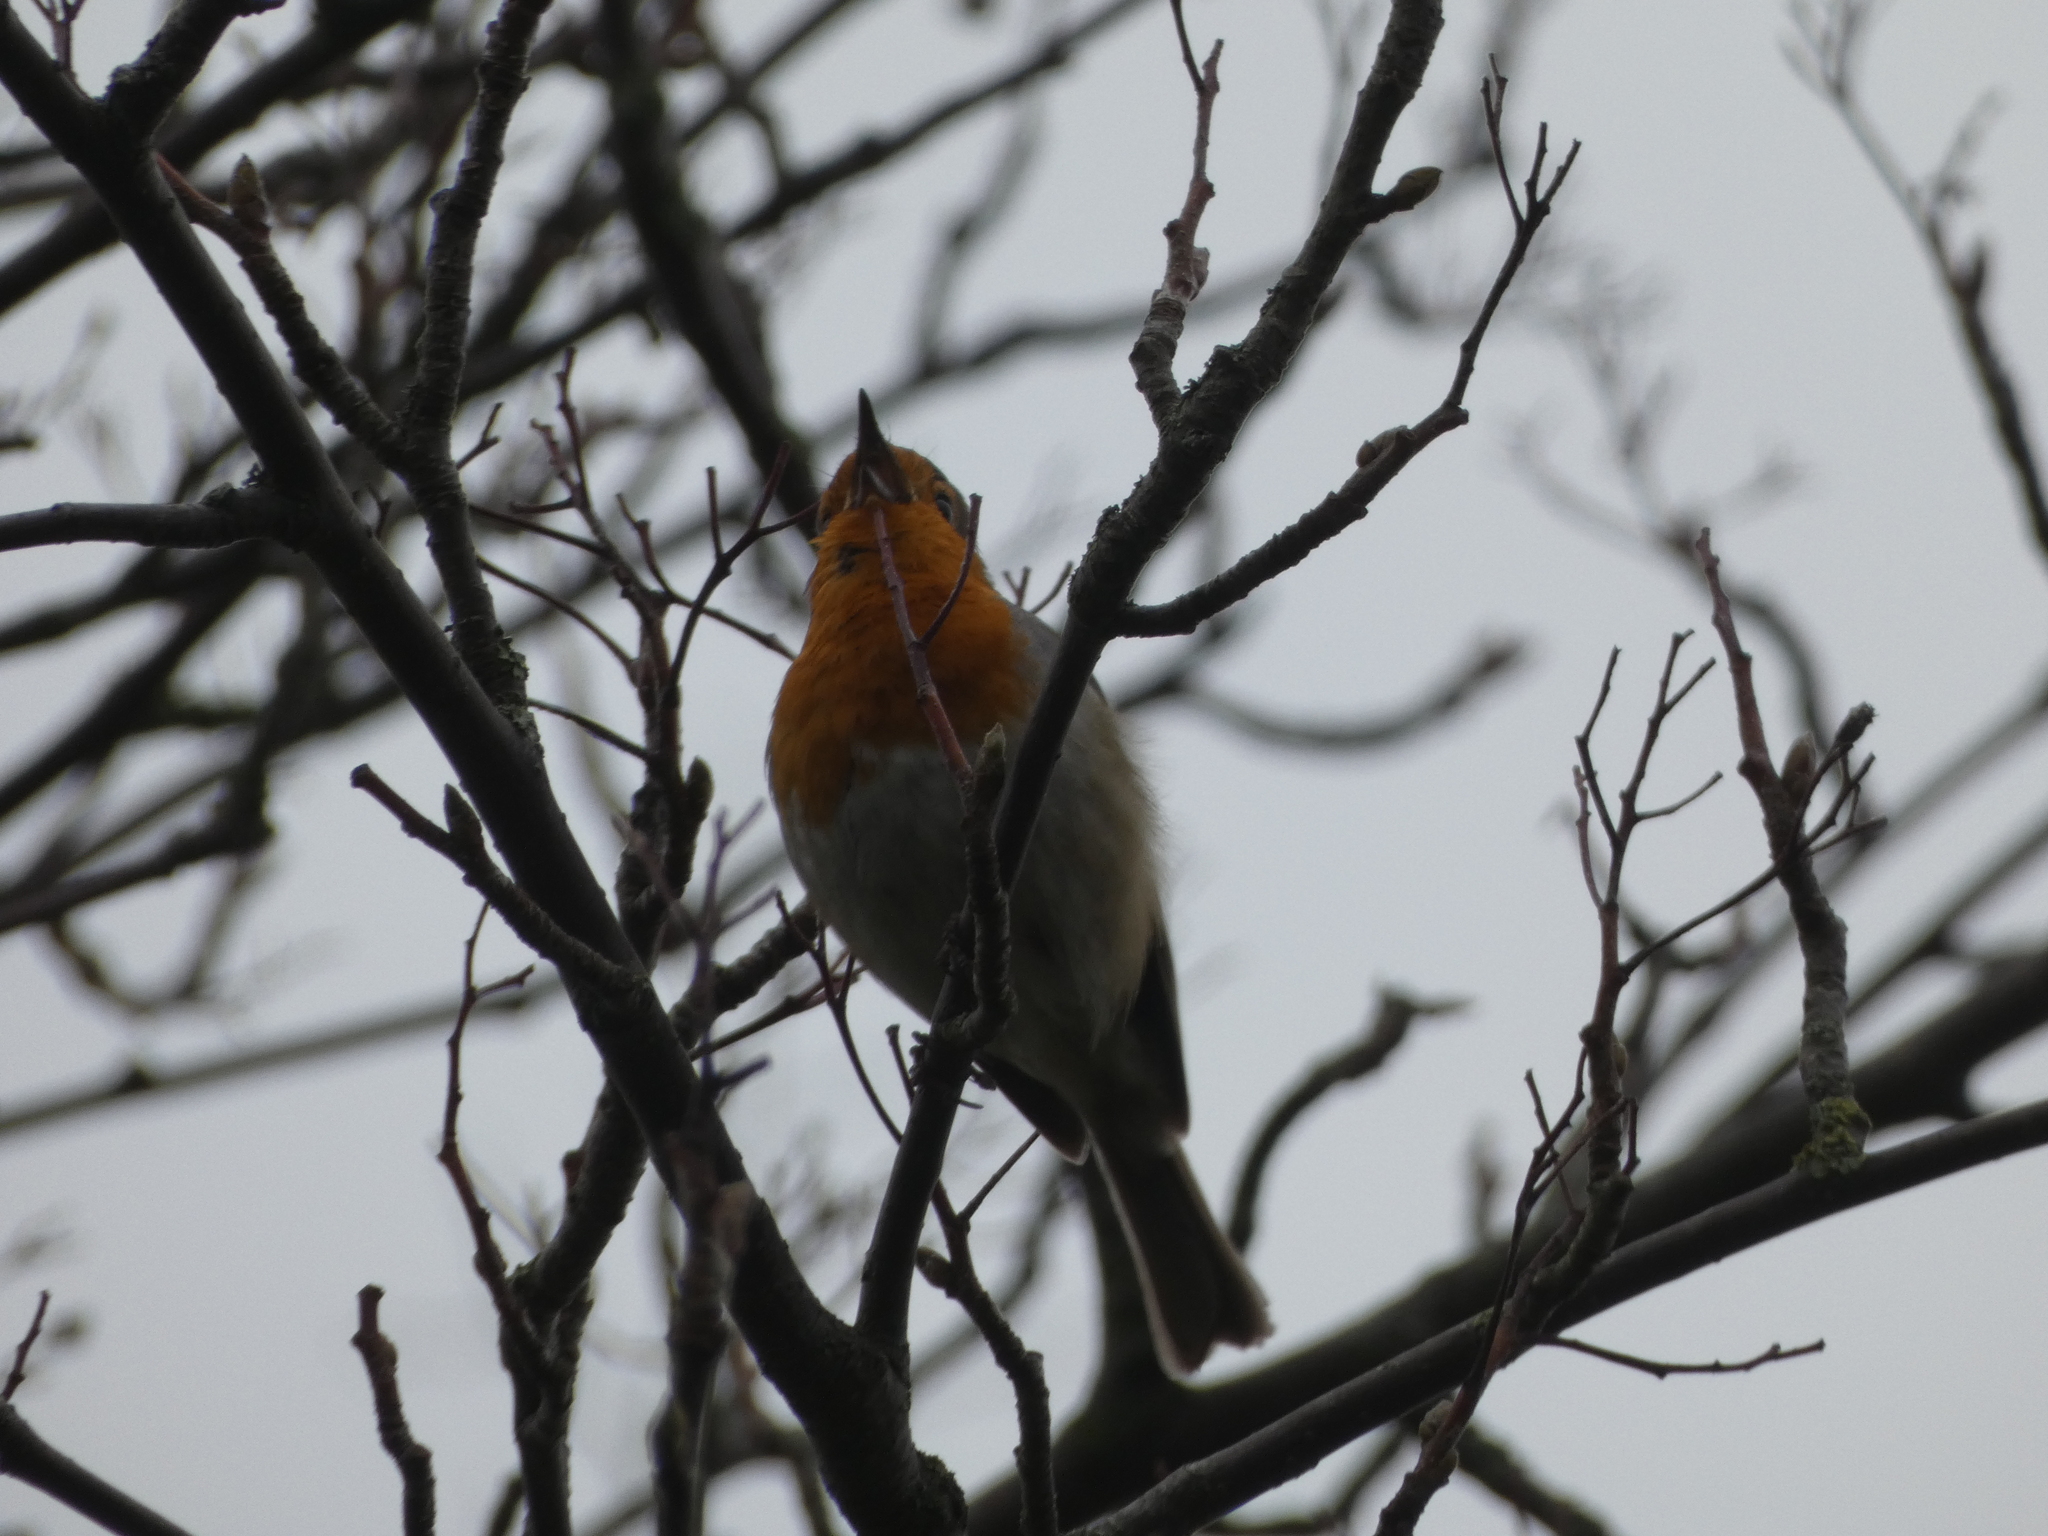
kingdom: Animalia
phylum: Chordata
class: Aves
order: Passeriformes
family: Muscicapidae
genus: Erithacus
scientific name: Erithacus rubecula
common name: European robin
